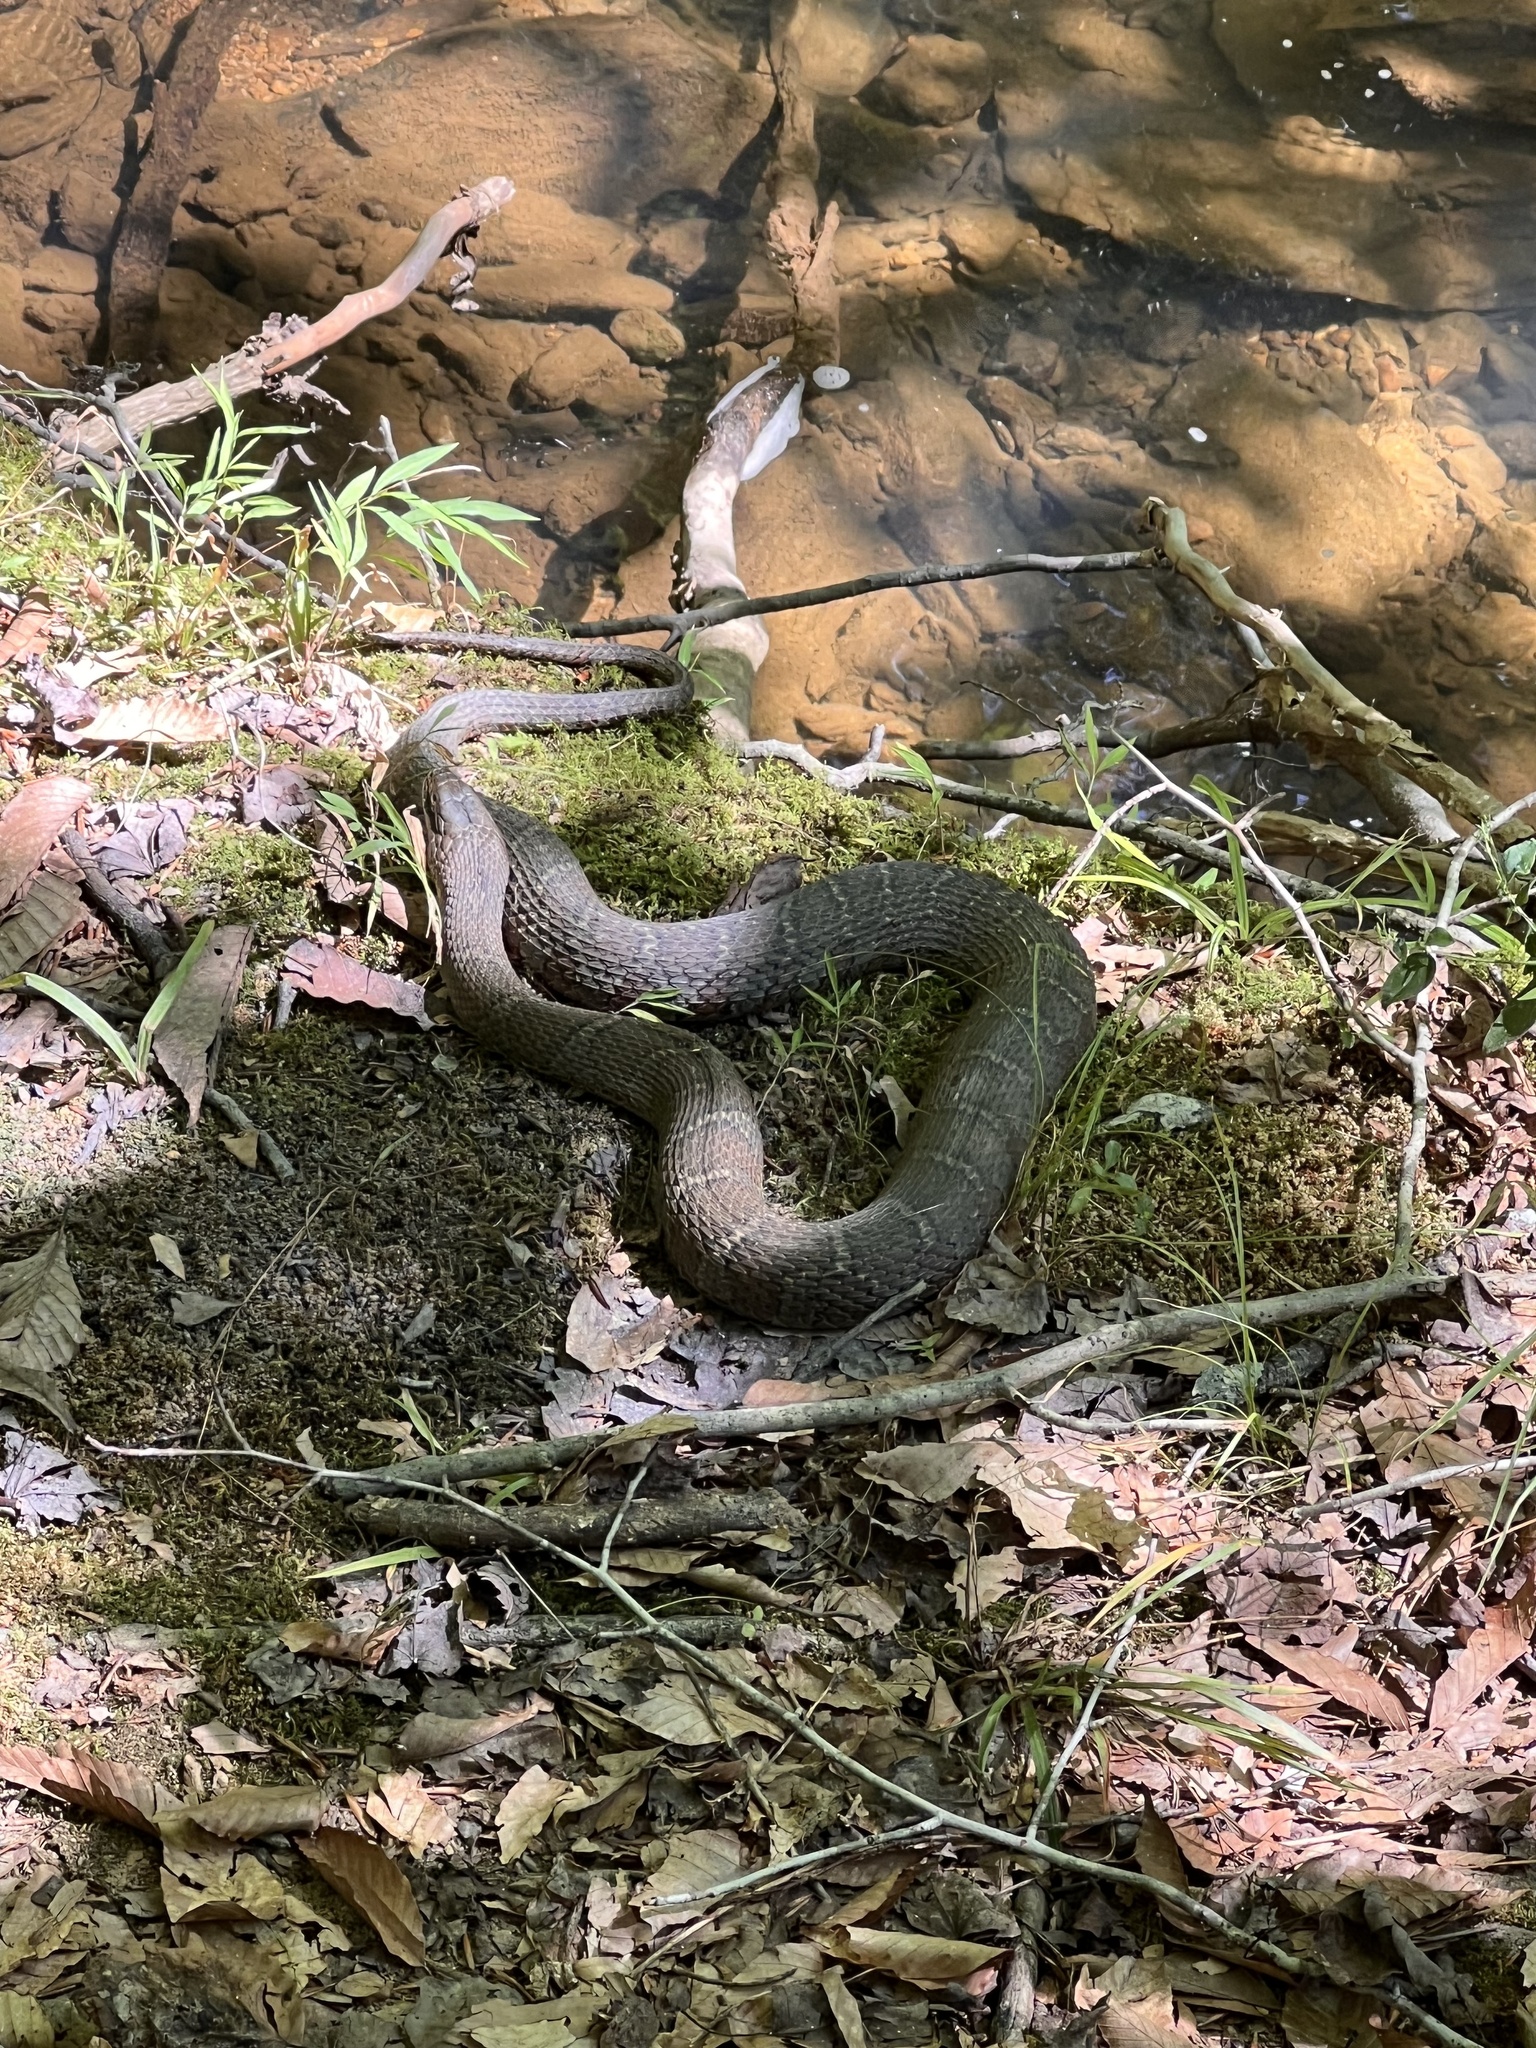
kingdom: Animalia
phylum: Chordata
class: Squamata
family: Colubridae
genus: Nerodia
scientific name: Nerodia sipedon
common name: Northern water snake
